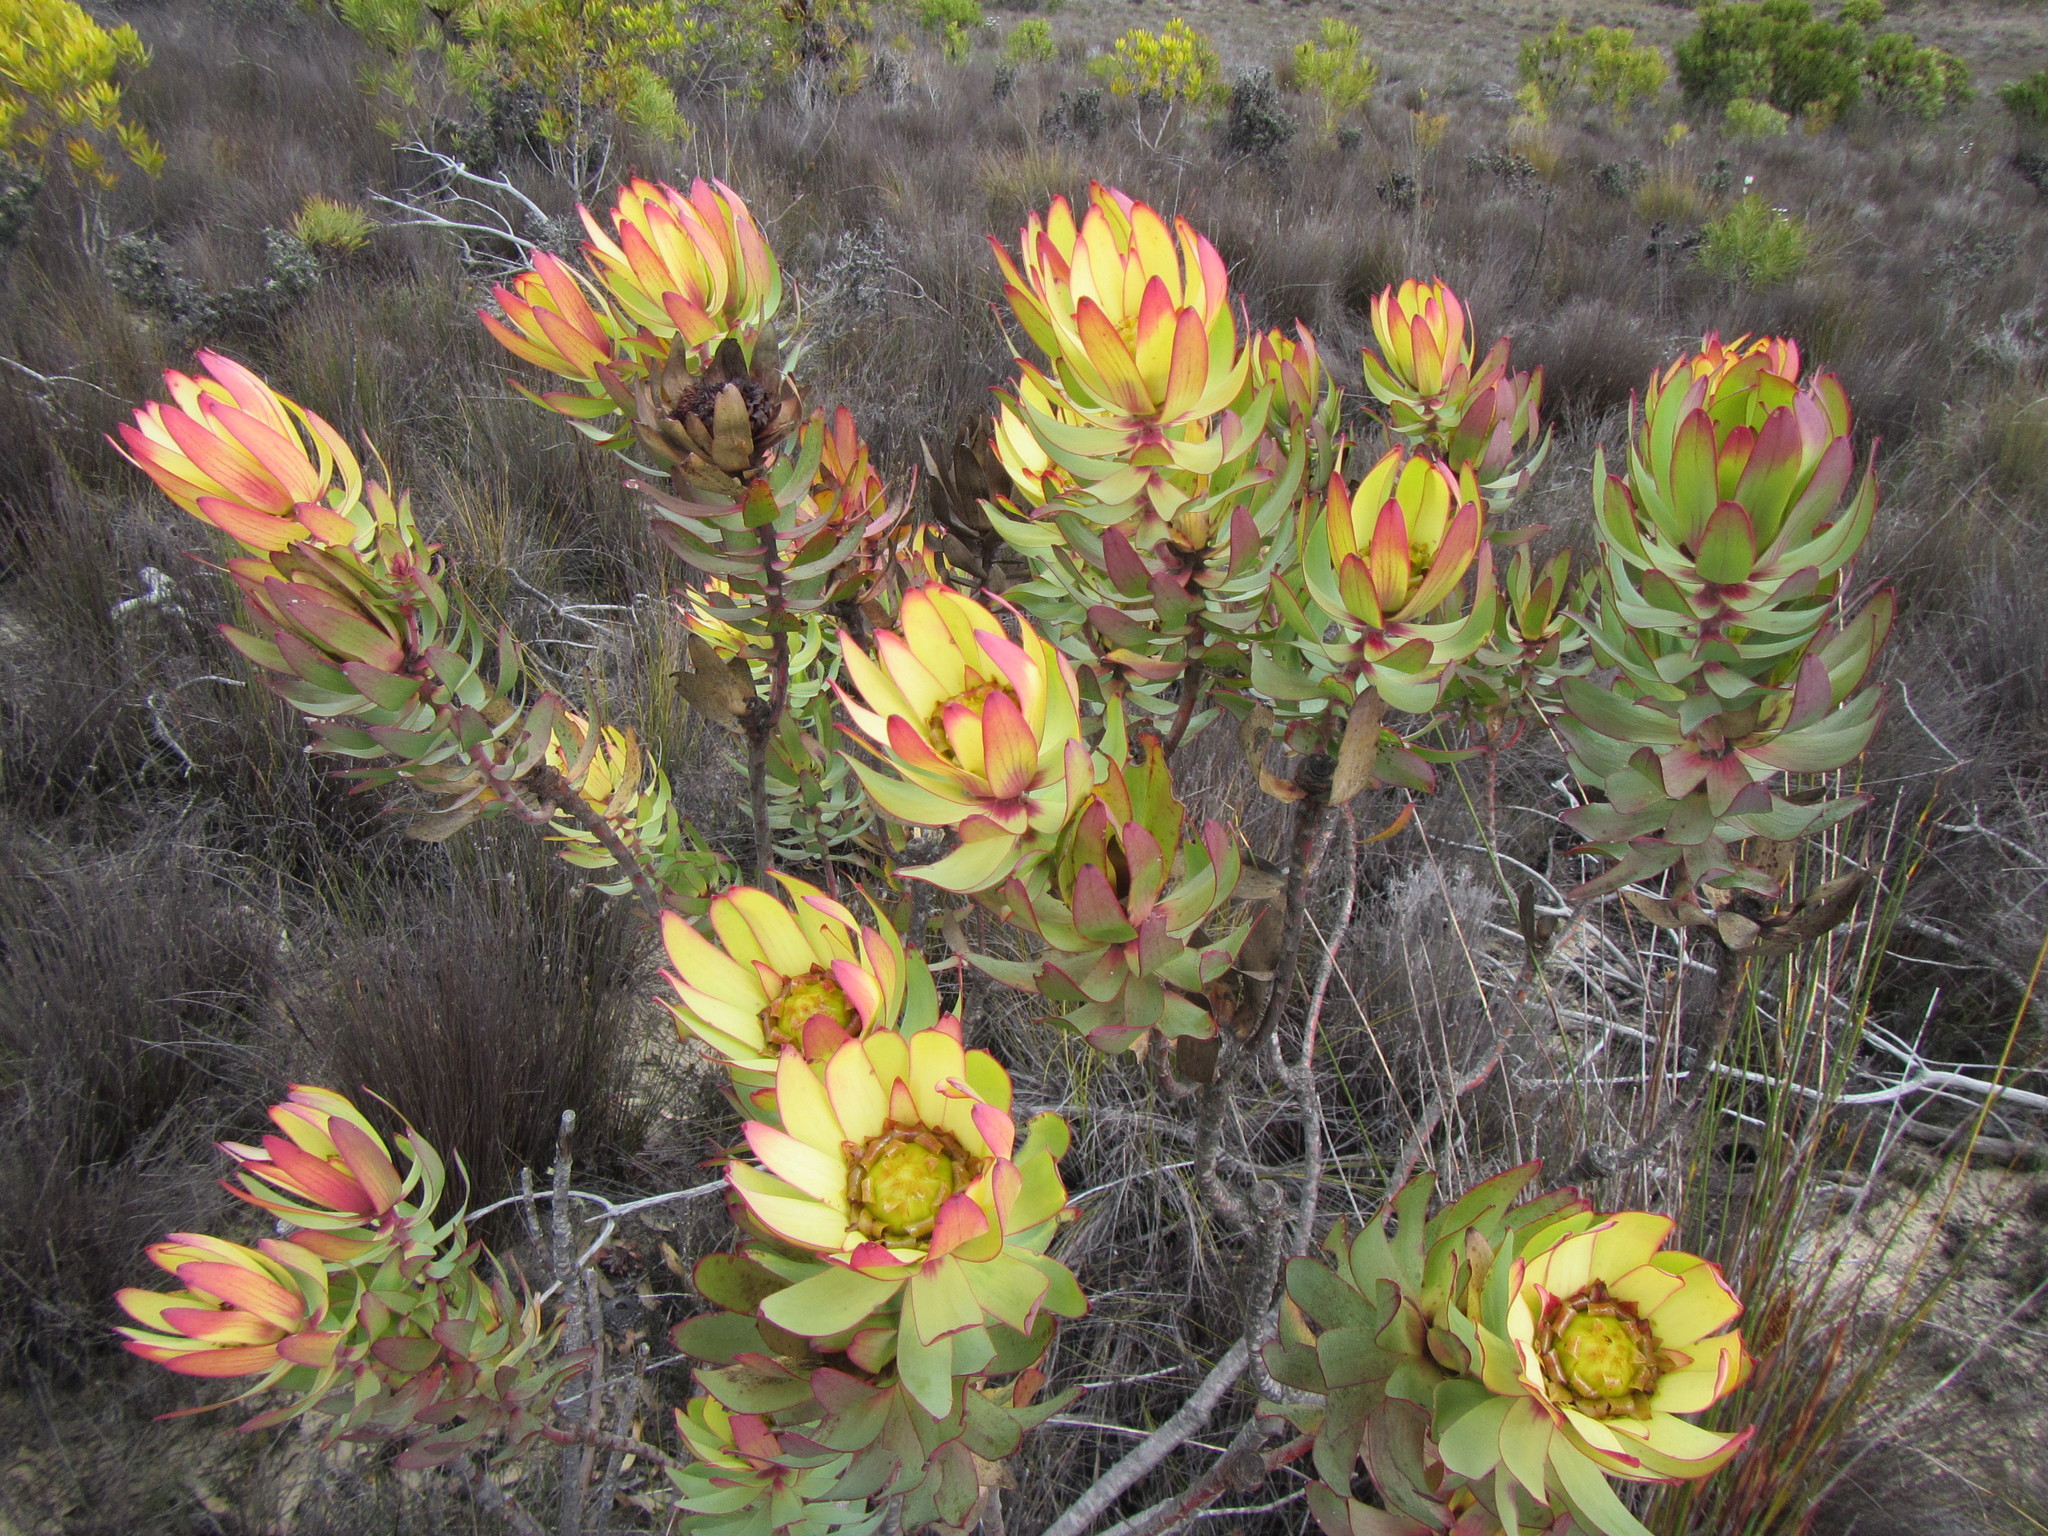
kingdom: Plantae
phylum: Tracheophyta
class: Magnoliopsida
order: Proteales
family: Proteaceae
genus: Leucadendron
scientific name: Leucadendron burchellii
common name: Riviersonderend conebush
